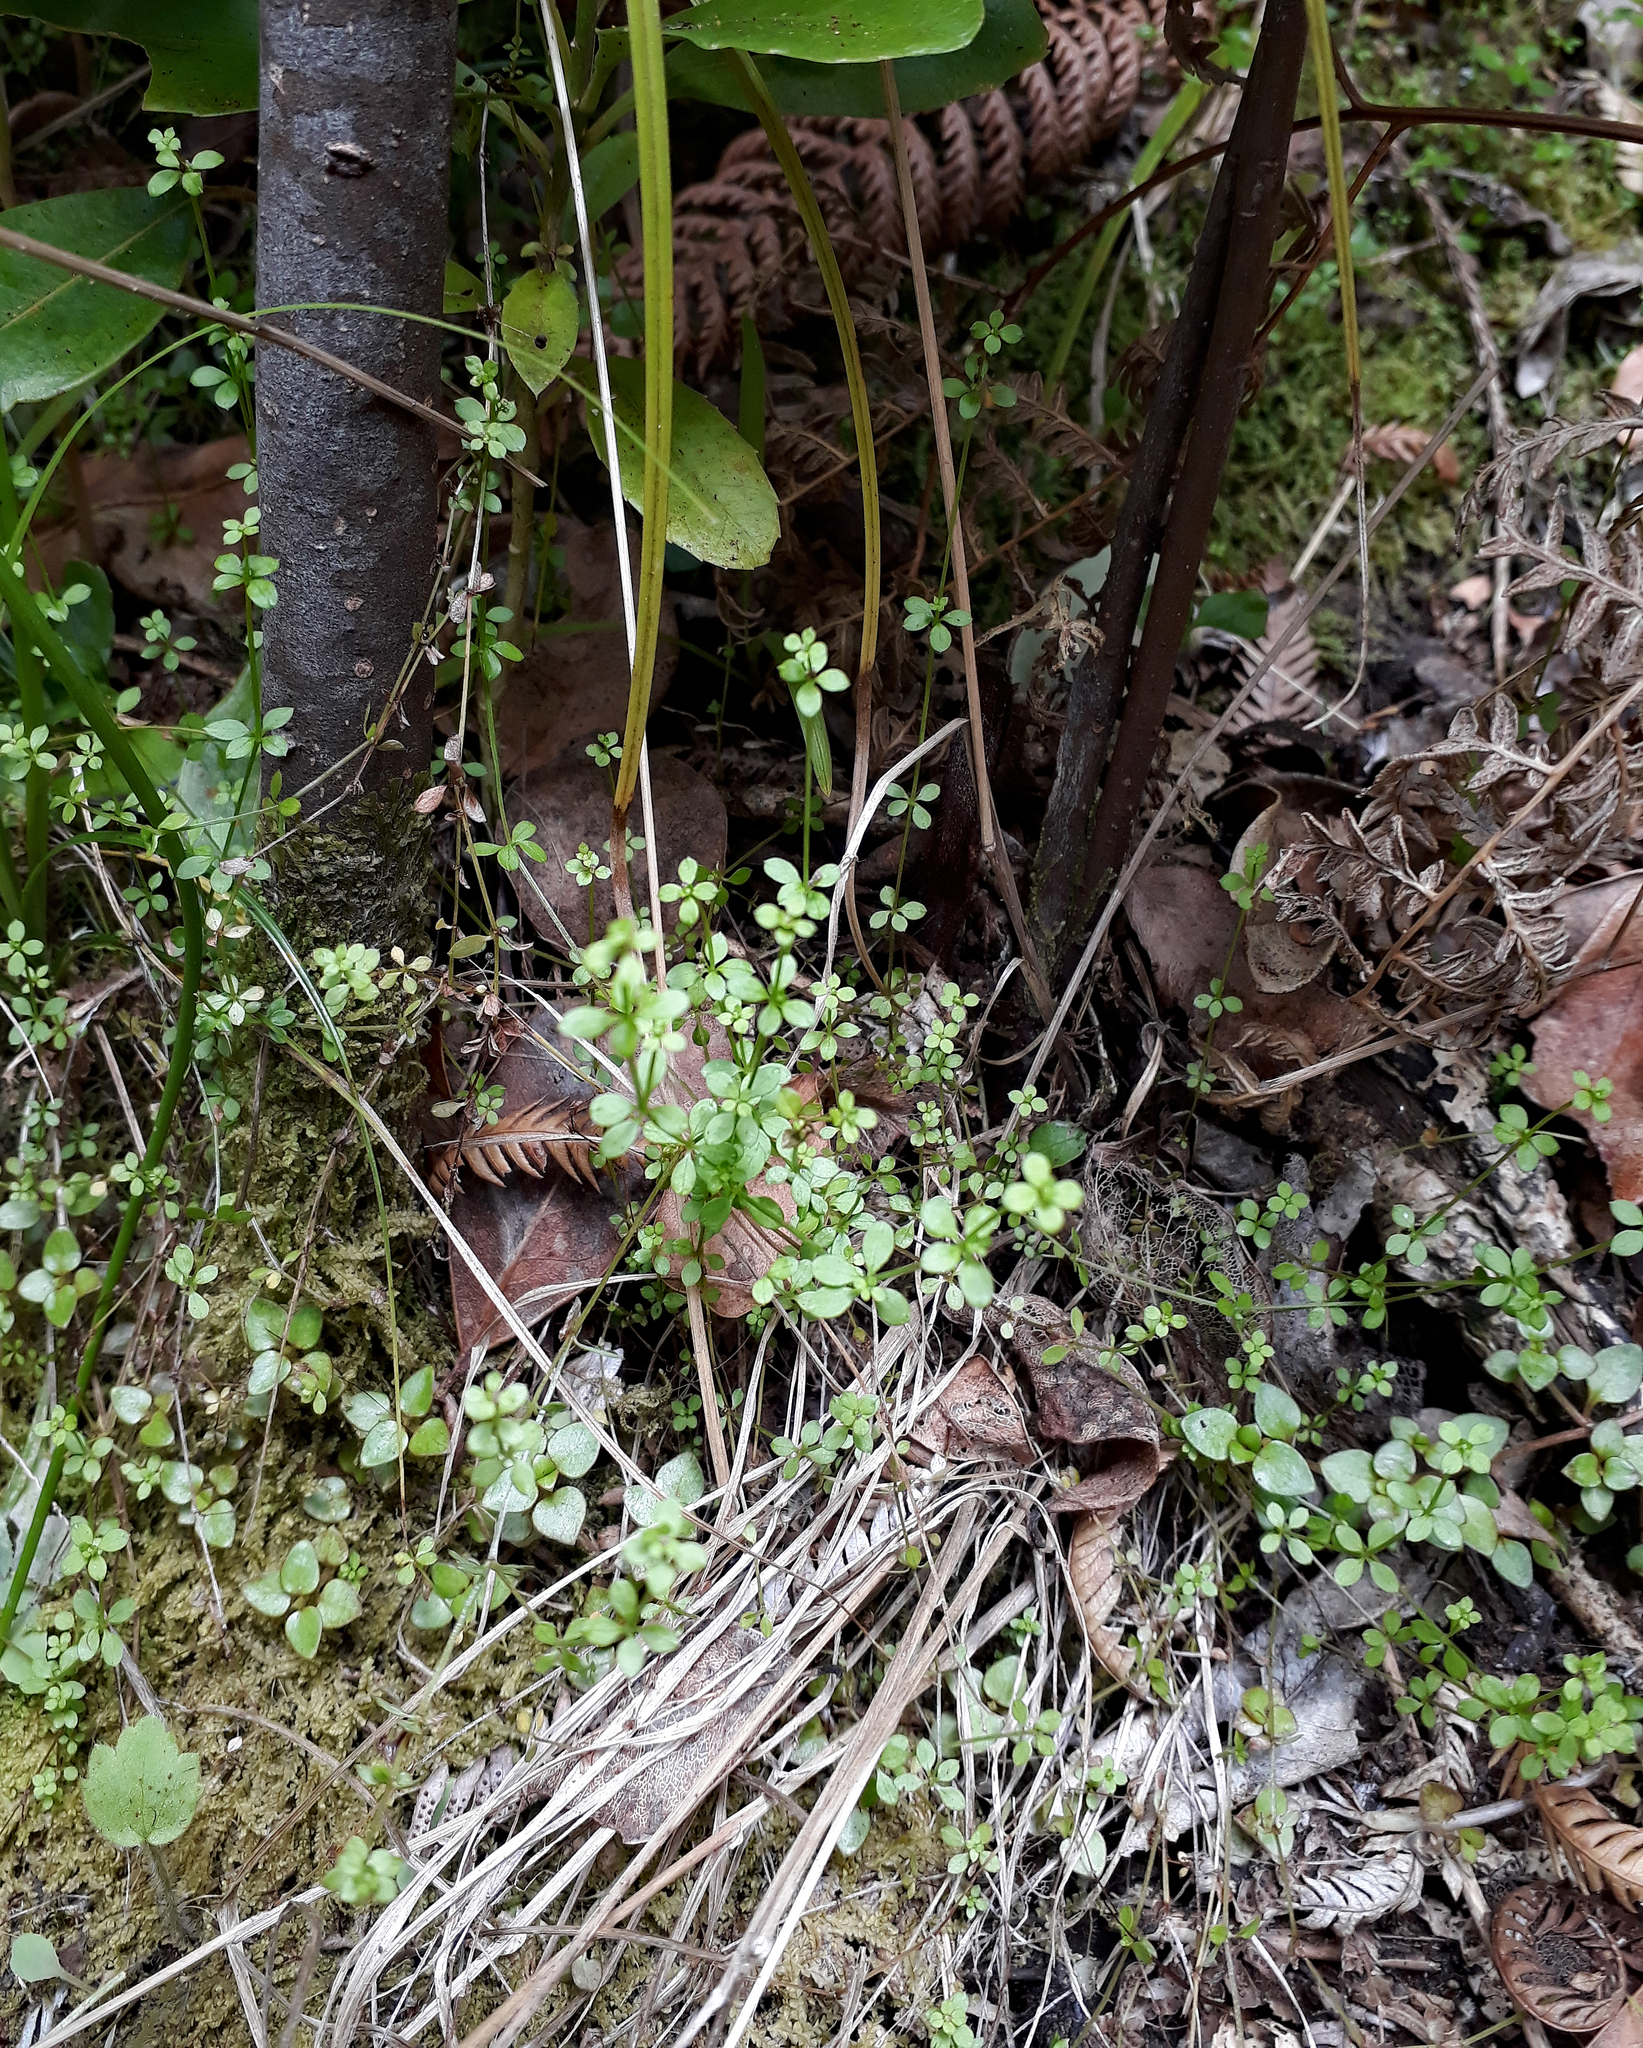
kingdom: Plantae
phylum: Tracheophyta
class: Magnoliopsida
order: Gentianales
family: Rubiaceae
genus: Galium
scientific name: Galium propinquum
